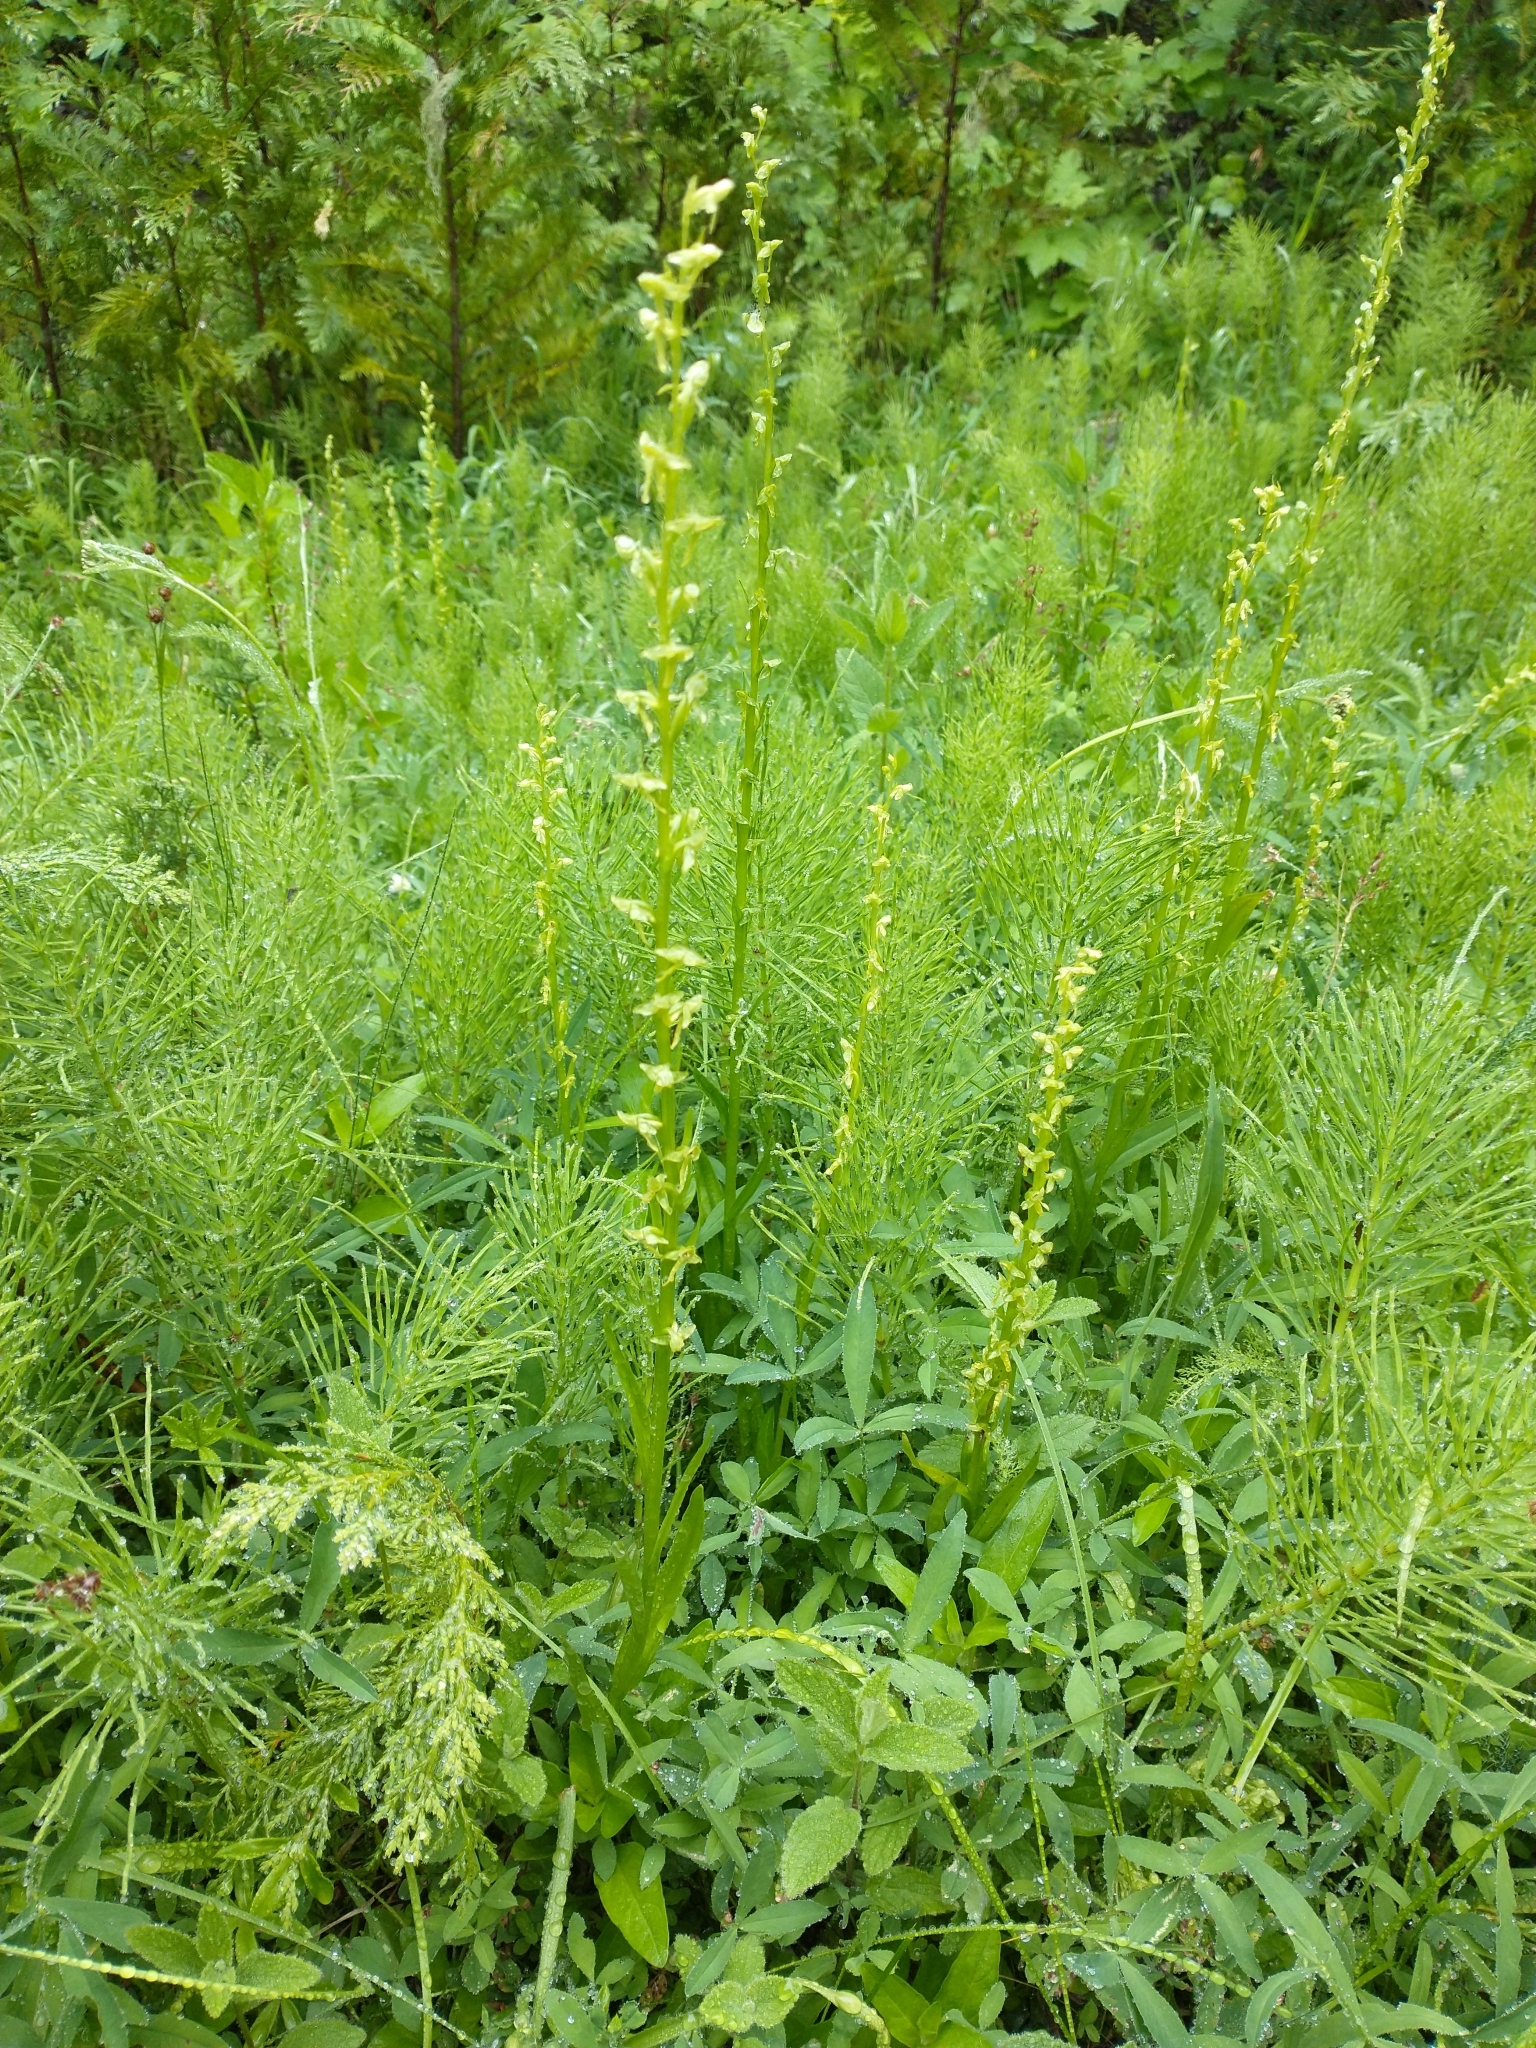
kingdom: Plantae
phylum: Tracheophyta
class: Liliopsida
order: Asparagales
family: Orchidaceae
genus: Platanthera
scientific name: Platanthera sparsiflora
